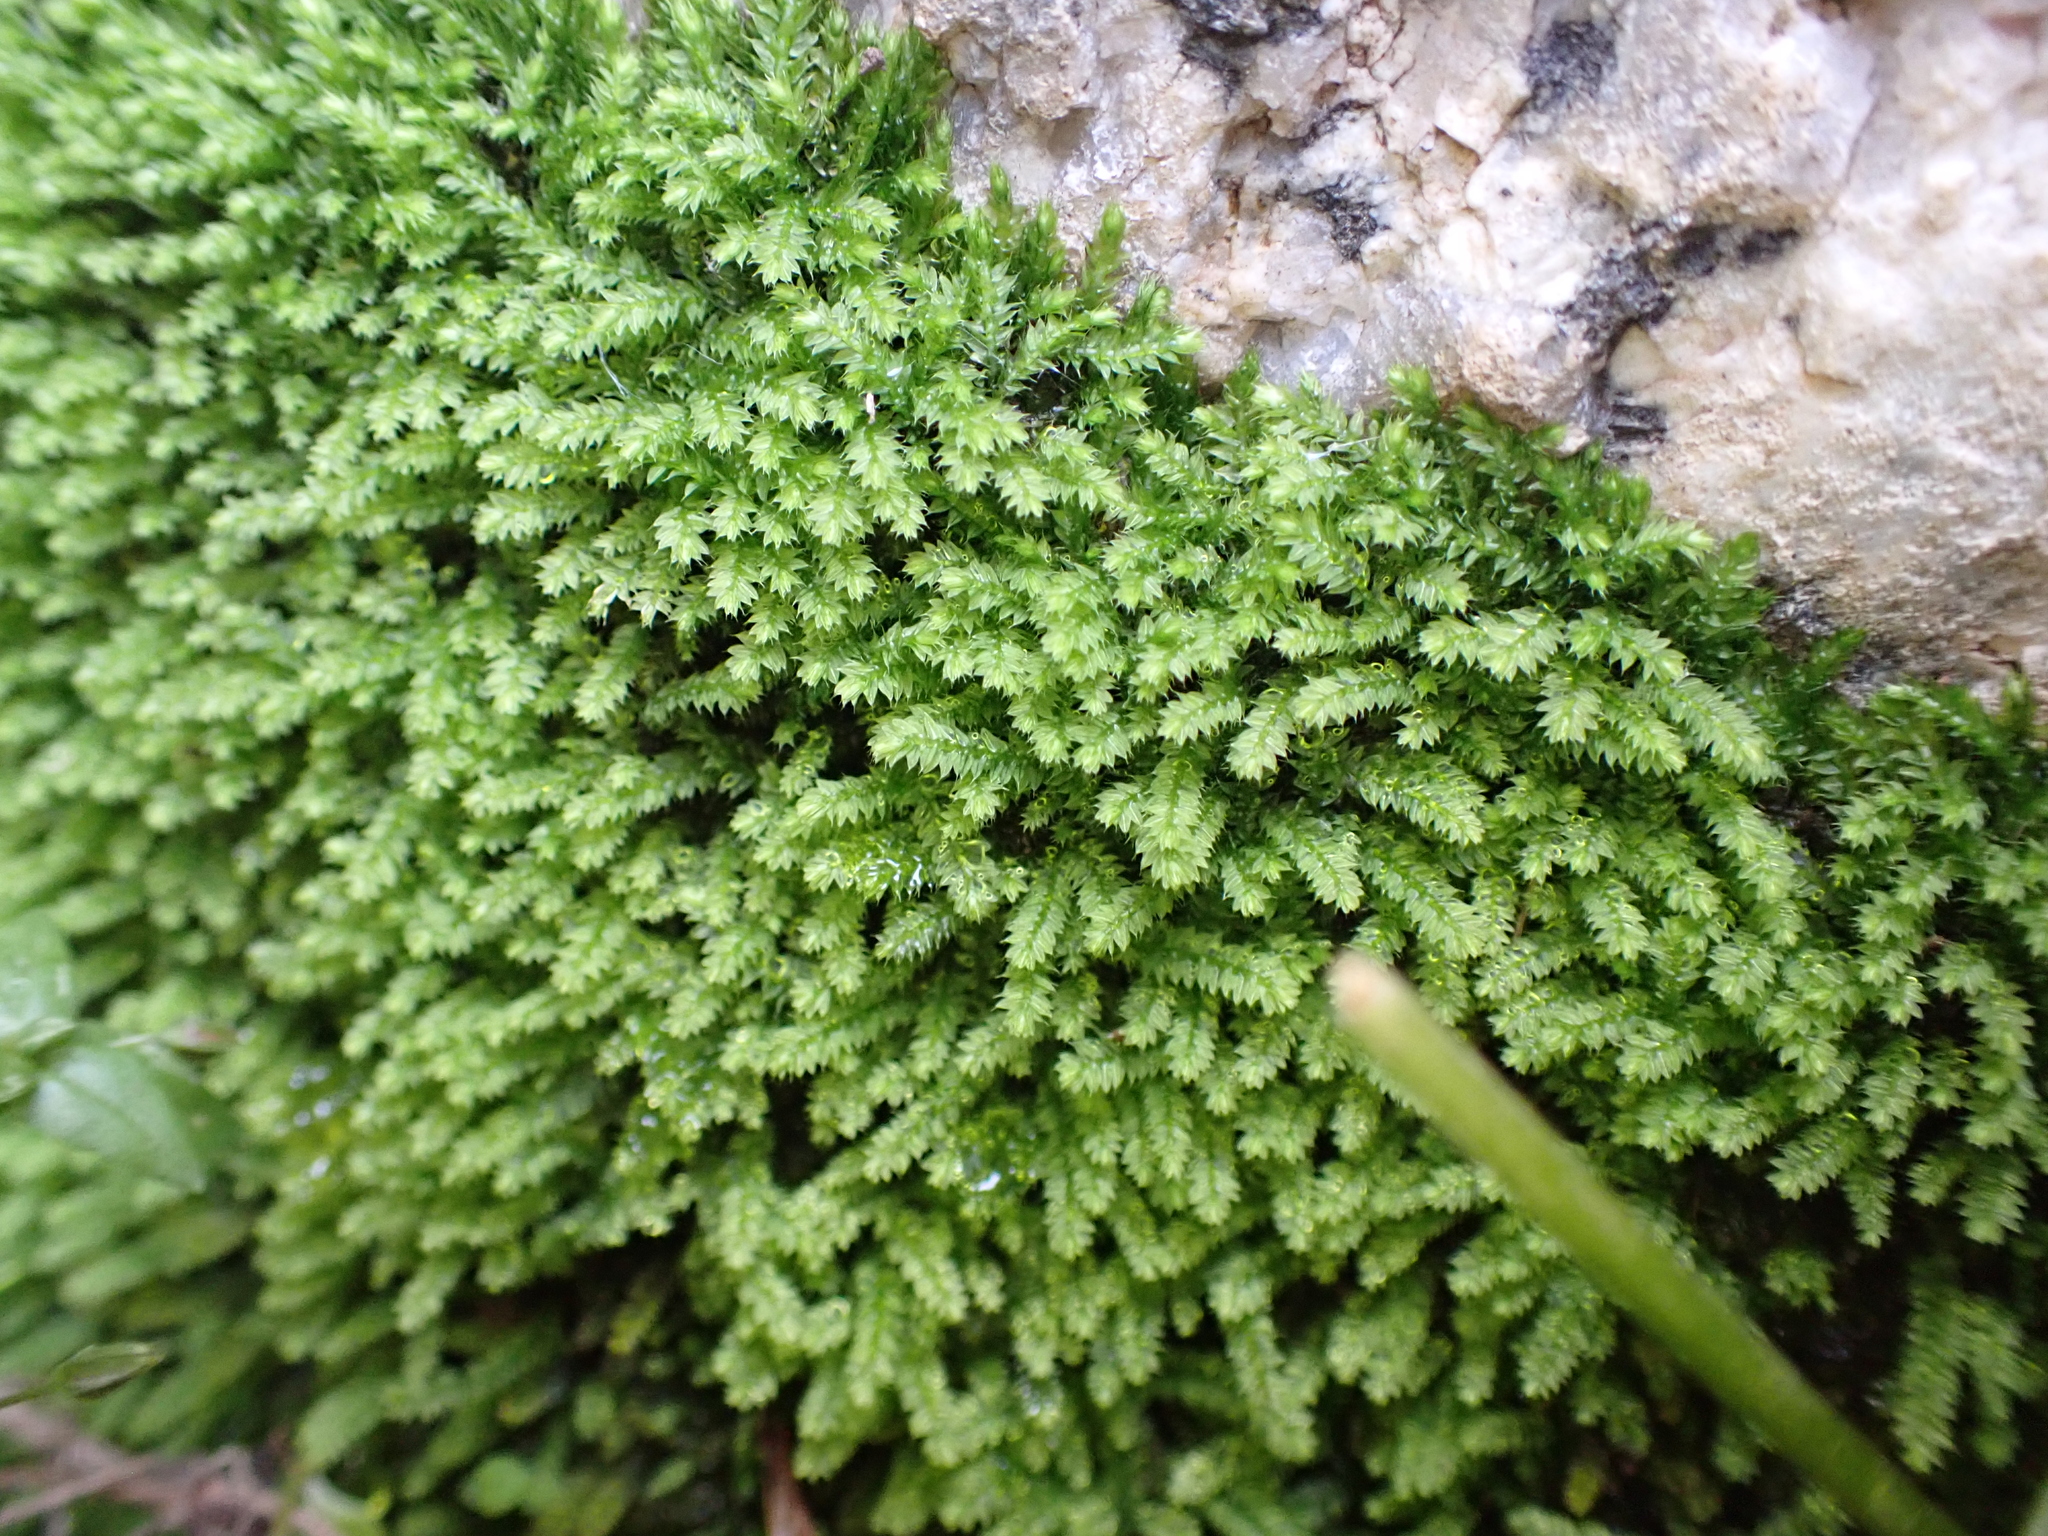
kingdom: Plantae
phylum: Bryophyta
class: Bryopsida
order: Hypnodendrales
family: Racopilaceae
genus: Racopilum
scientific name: Racopilum cuspidigerum
